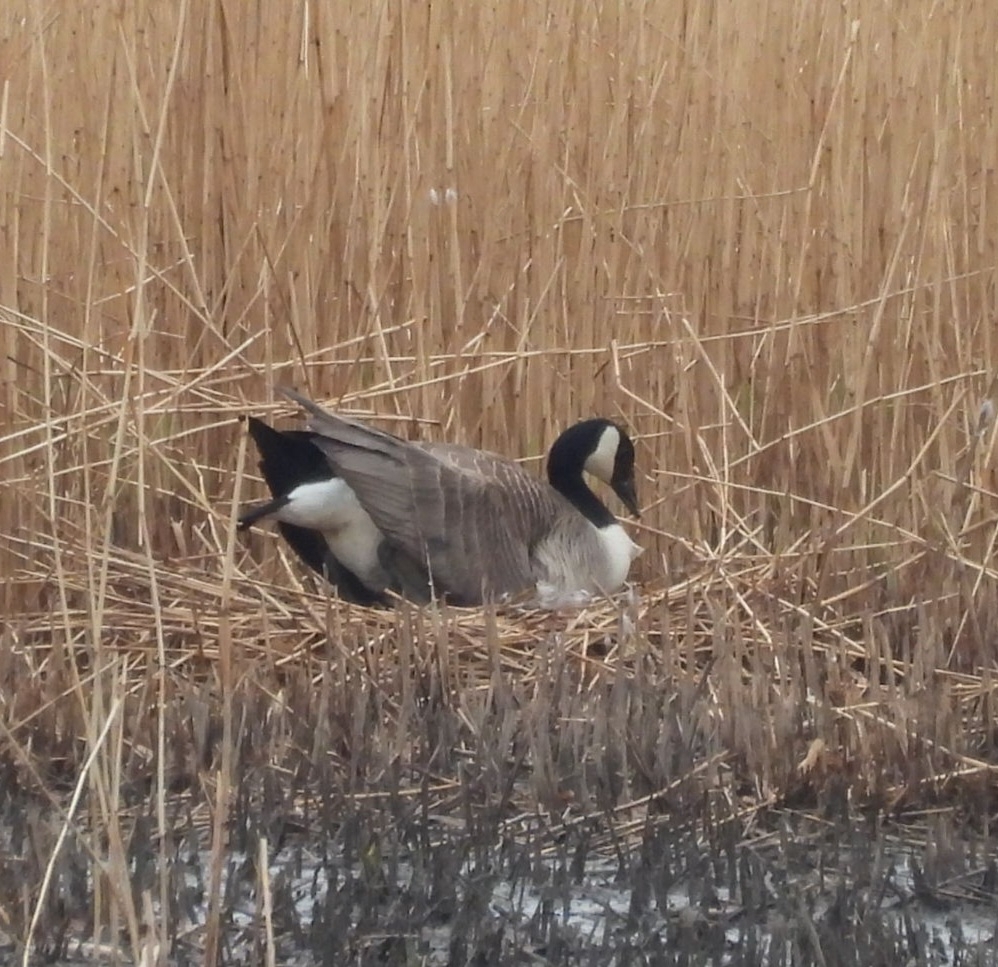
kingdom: Animalia
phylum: Chordata
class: Aves
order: Anseriformes
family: Anatidae
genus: Branta
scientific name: Branta canadensis
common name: Canada goose
